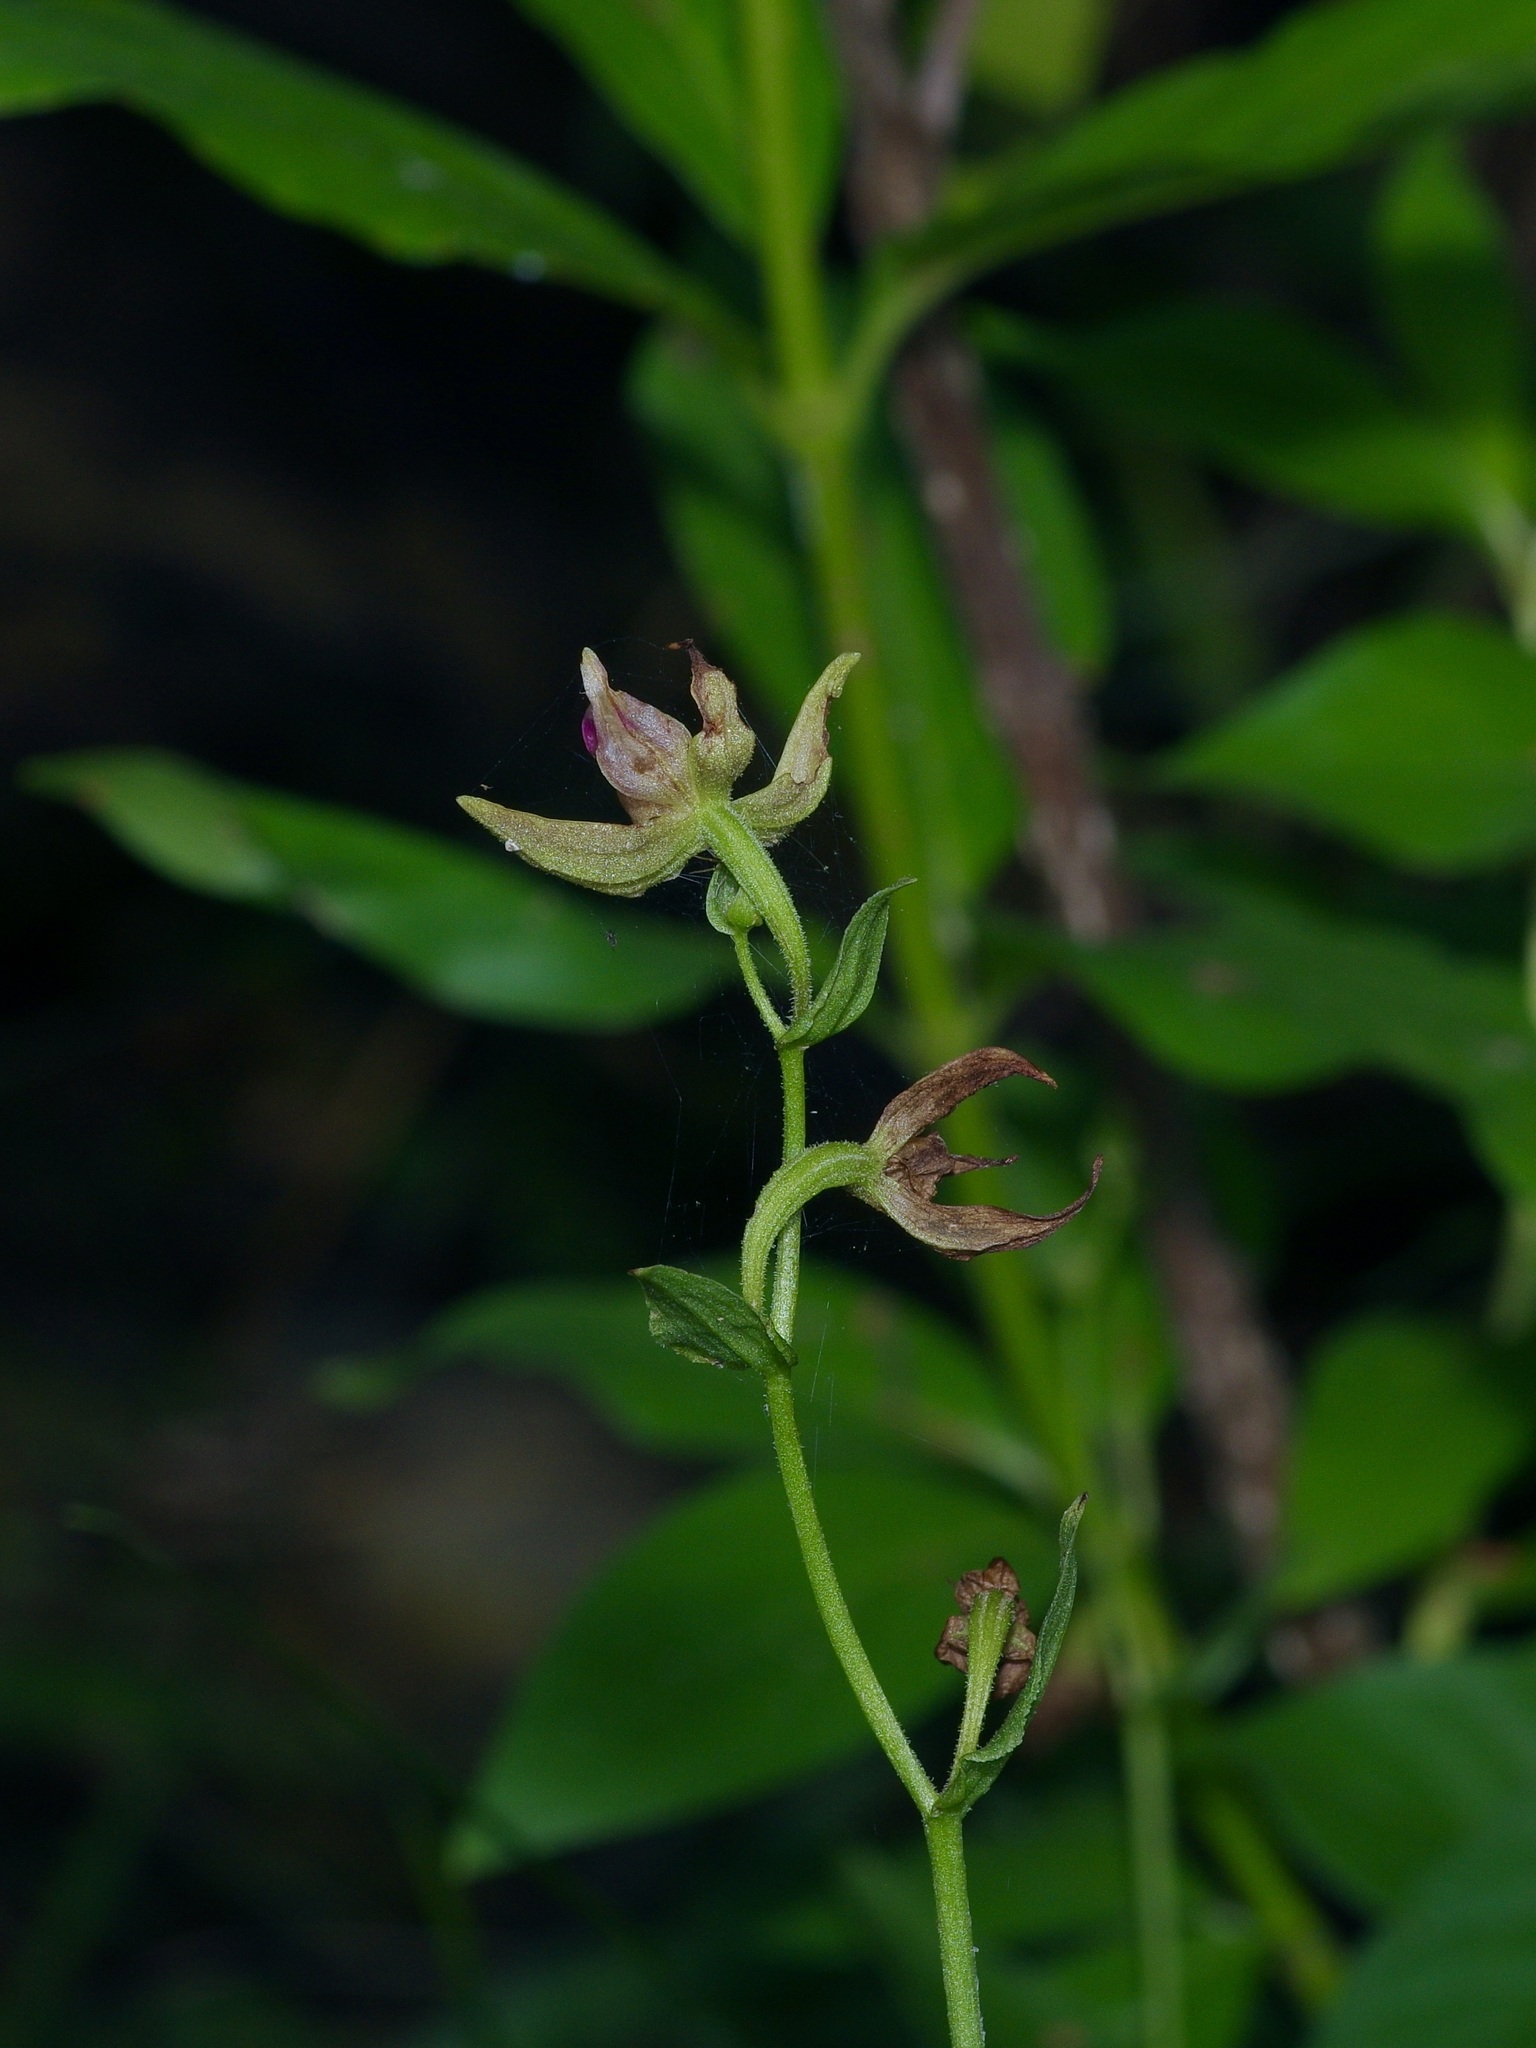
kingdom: Plantae
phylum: Tracheophyta
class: Liliopsida
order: Asparagales
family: Orchidaceae
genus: Epipactis
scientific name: Epipactis gigantea
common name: Chatterbox
